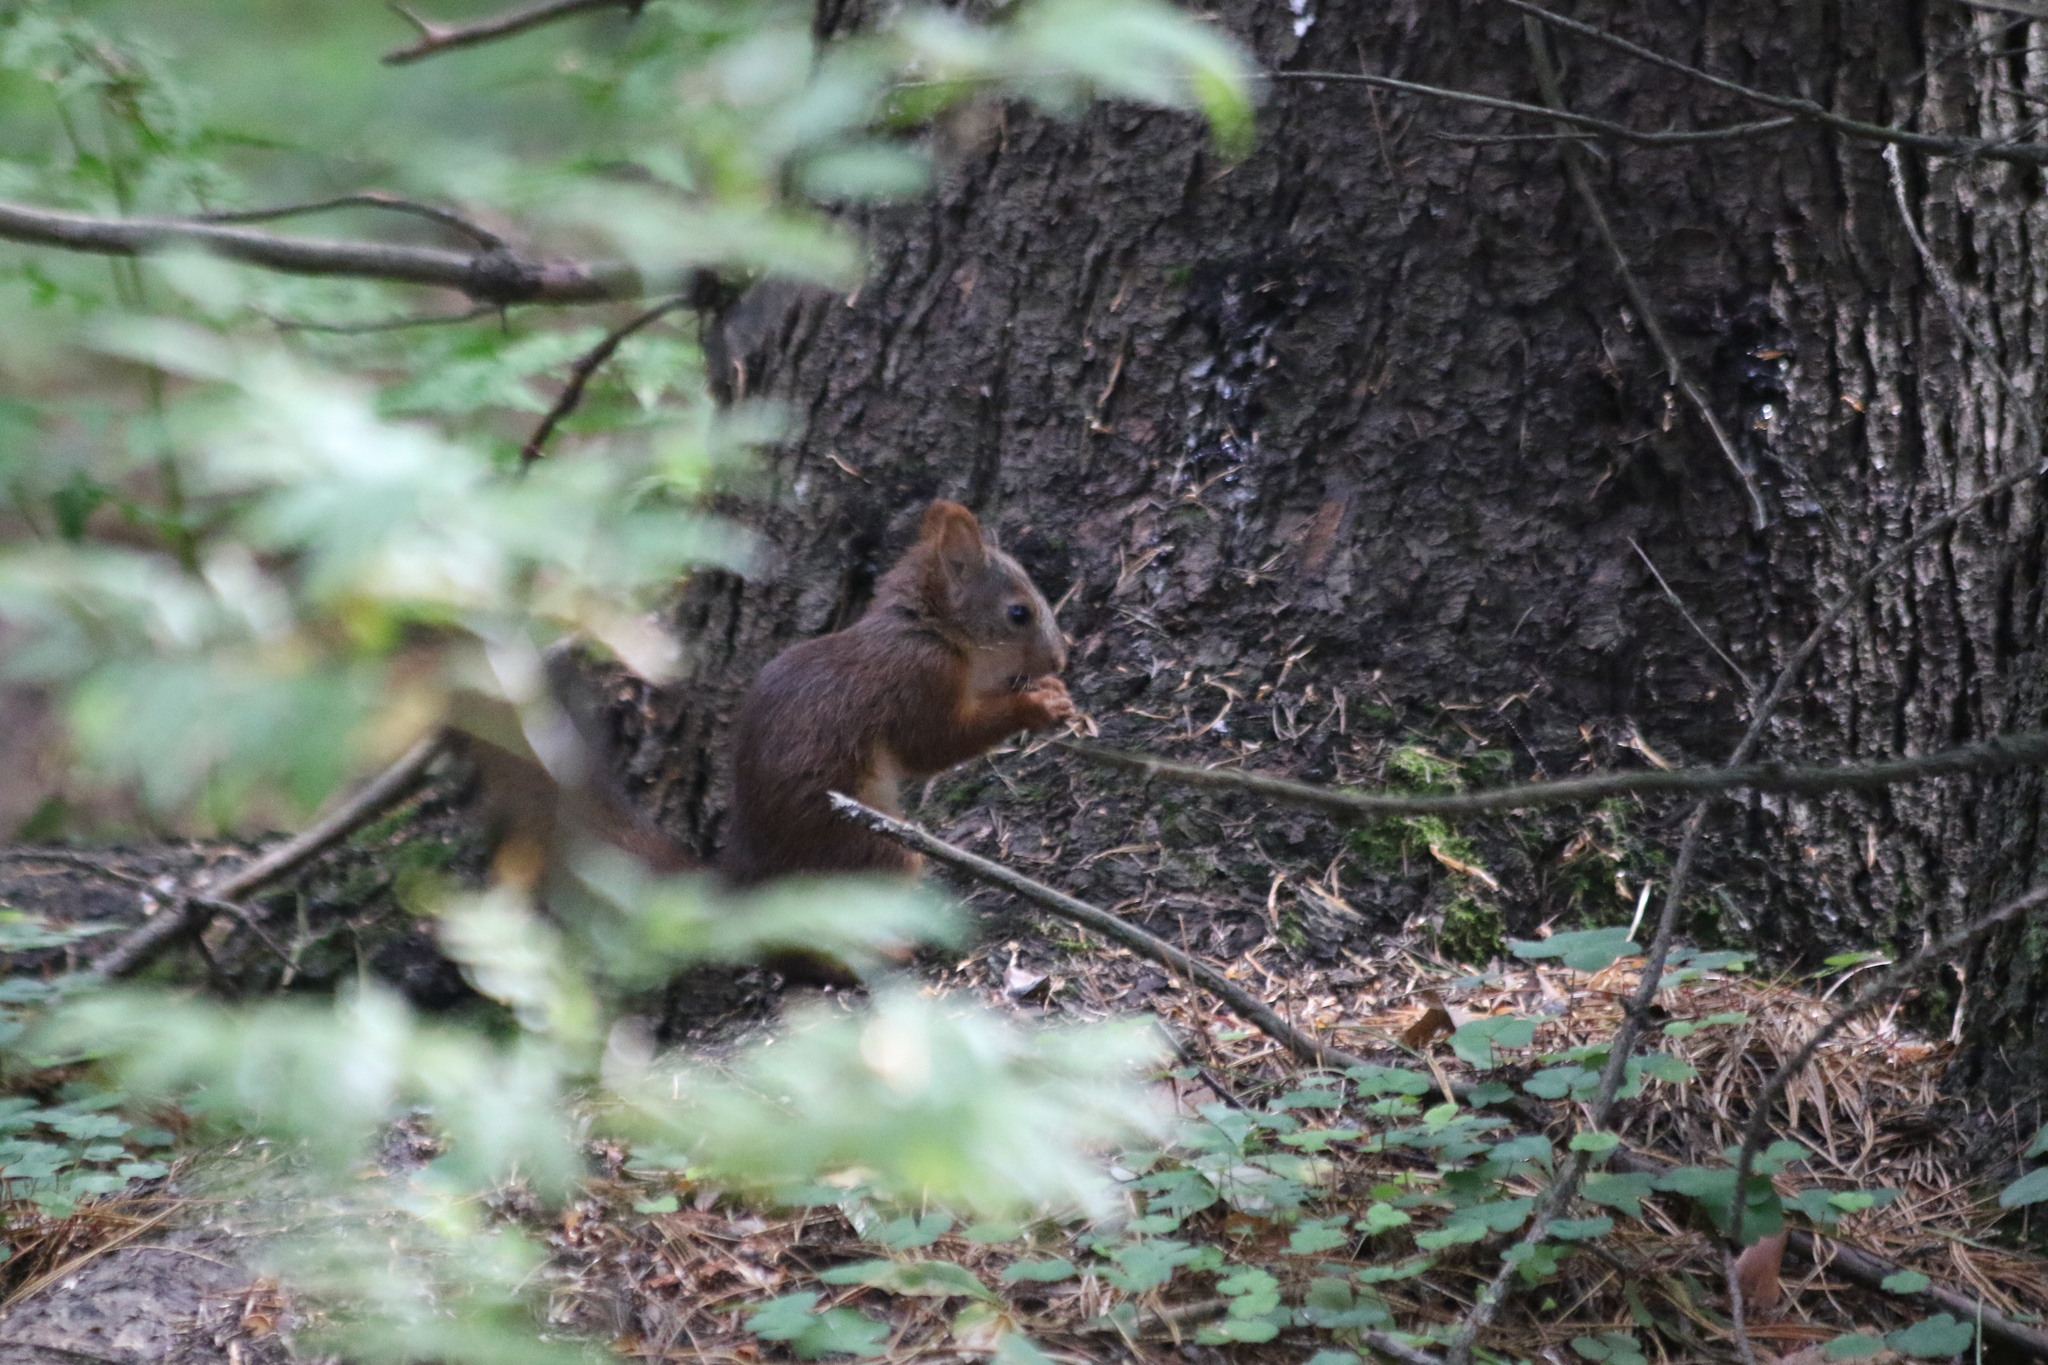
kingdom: Animalia
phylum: Chordata
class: Mammalia
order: Rodentia
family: Sciuridae
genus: Sciurus
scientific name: Sciurus vulgaris
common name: Eurasian red squirrel
